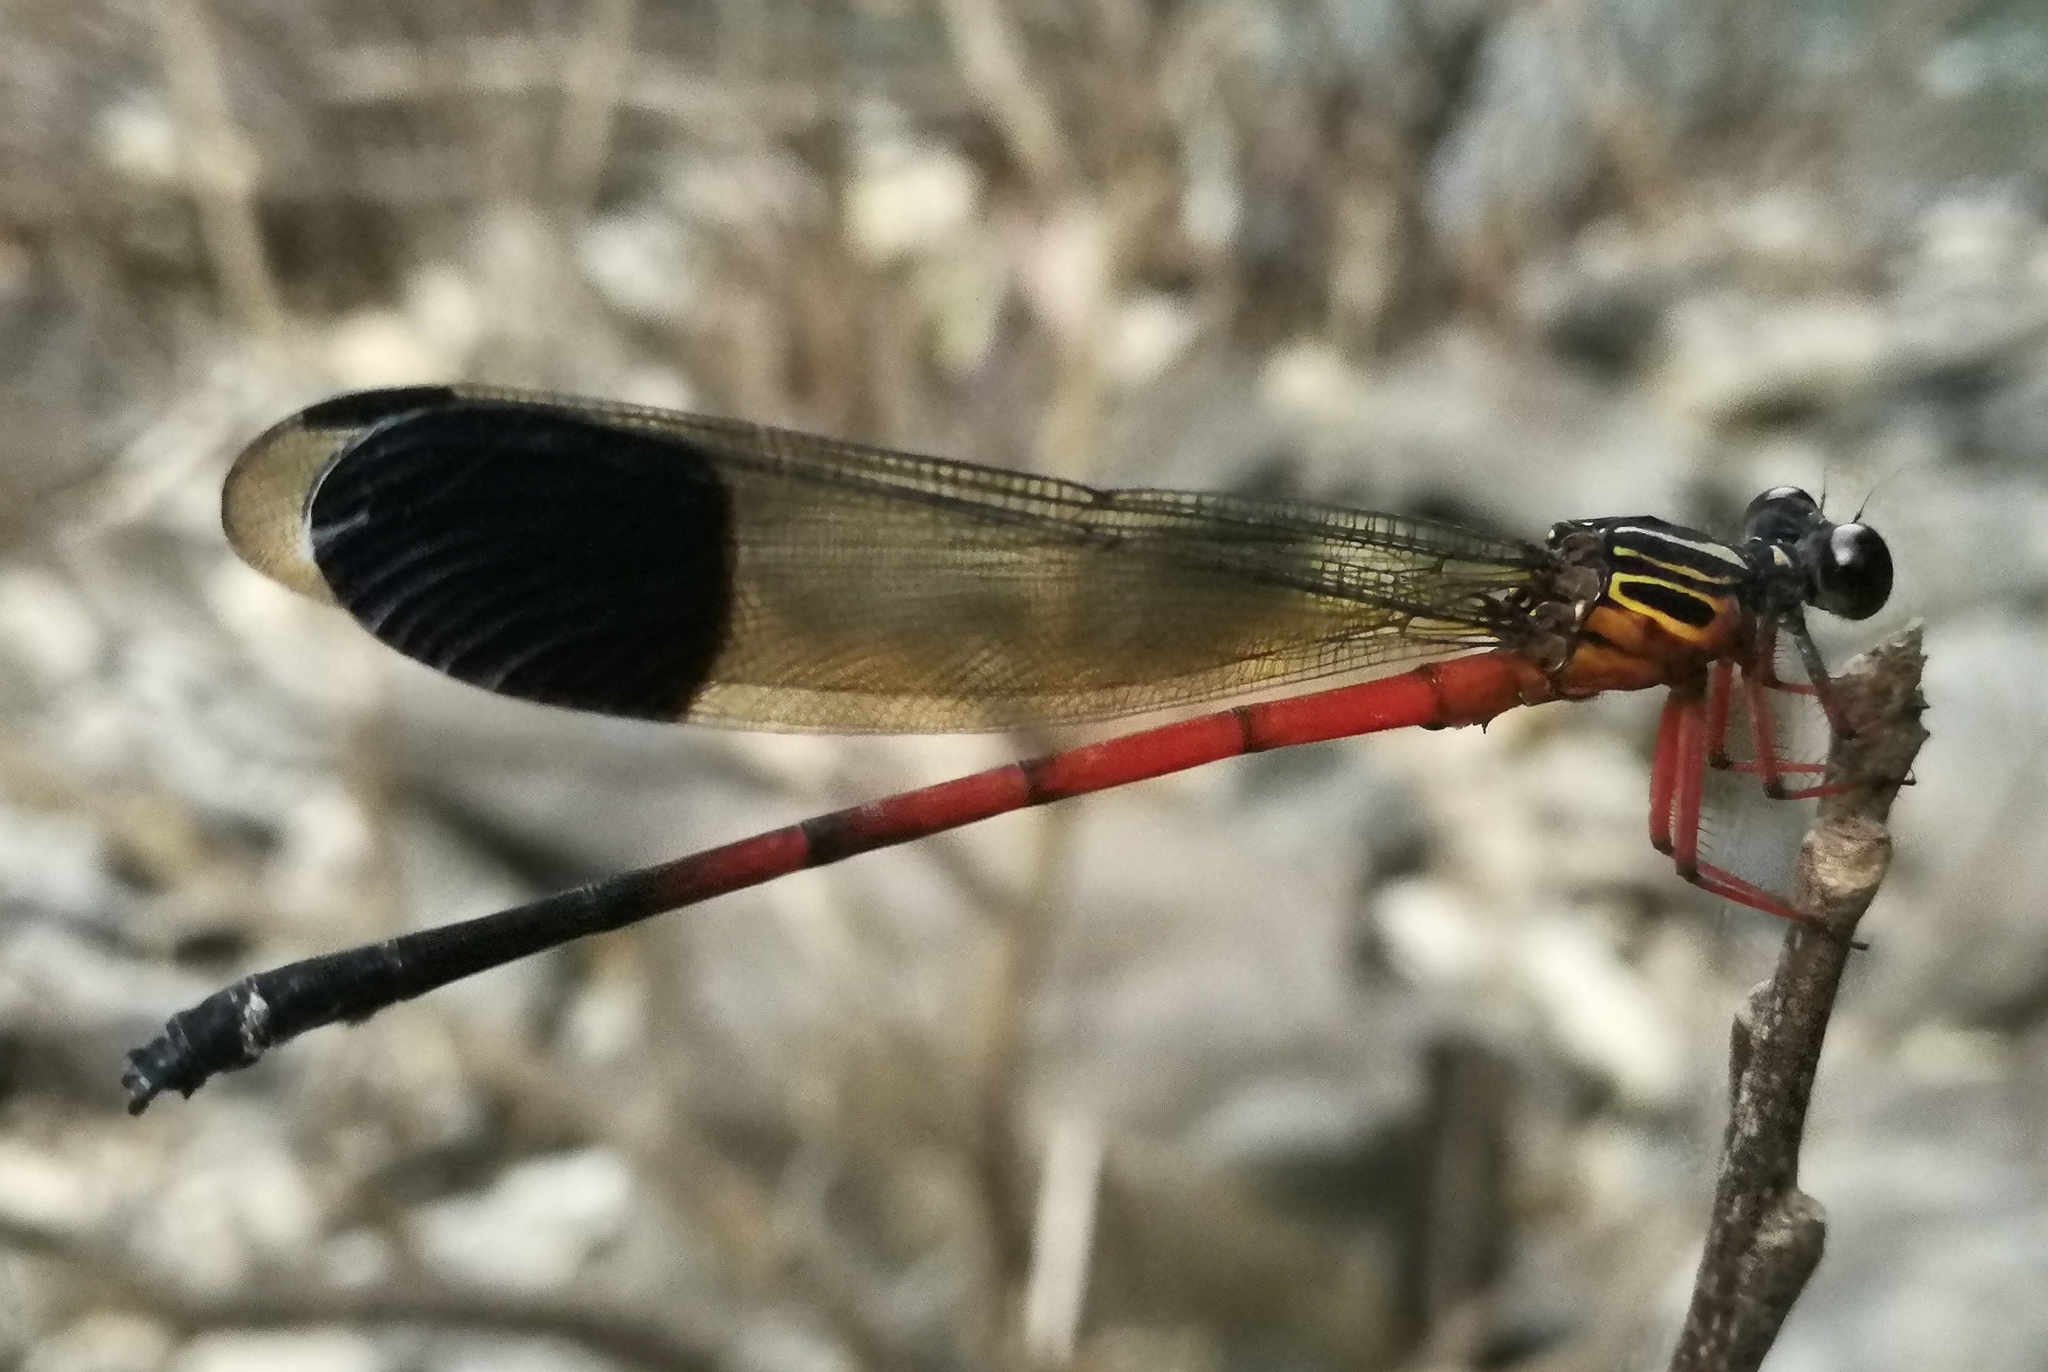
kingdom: Animalia
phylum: Arthropoda
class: Insecta
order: Odonata
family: Euphaeidae
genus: Euphaea
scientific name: Euphaea dispar
